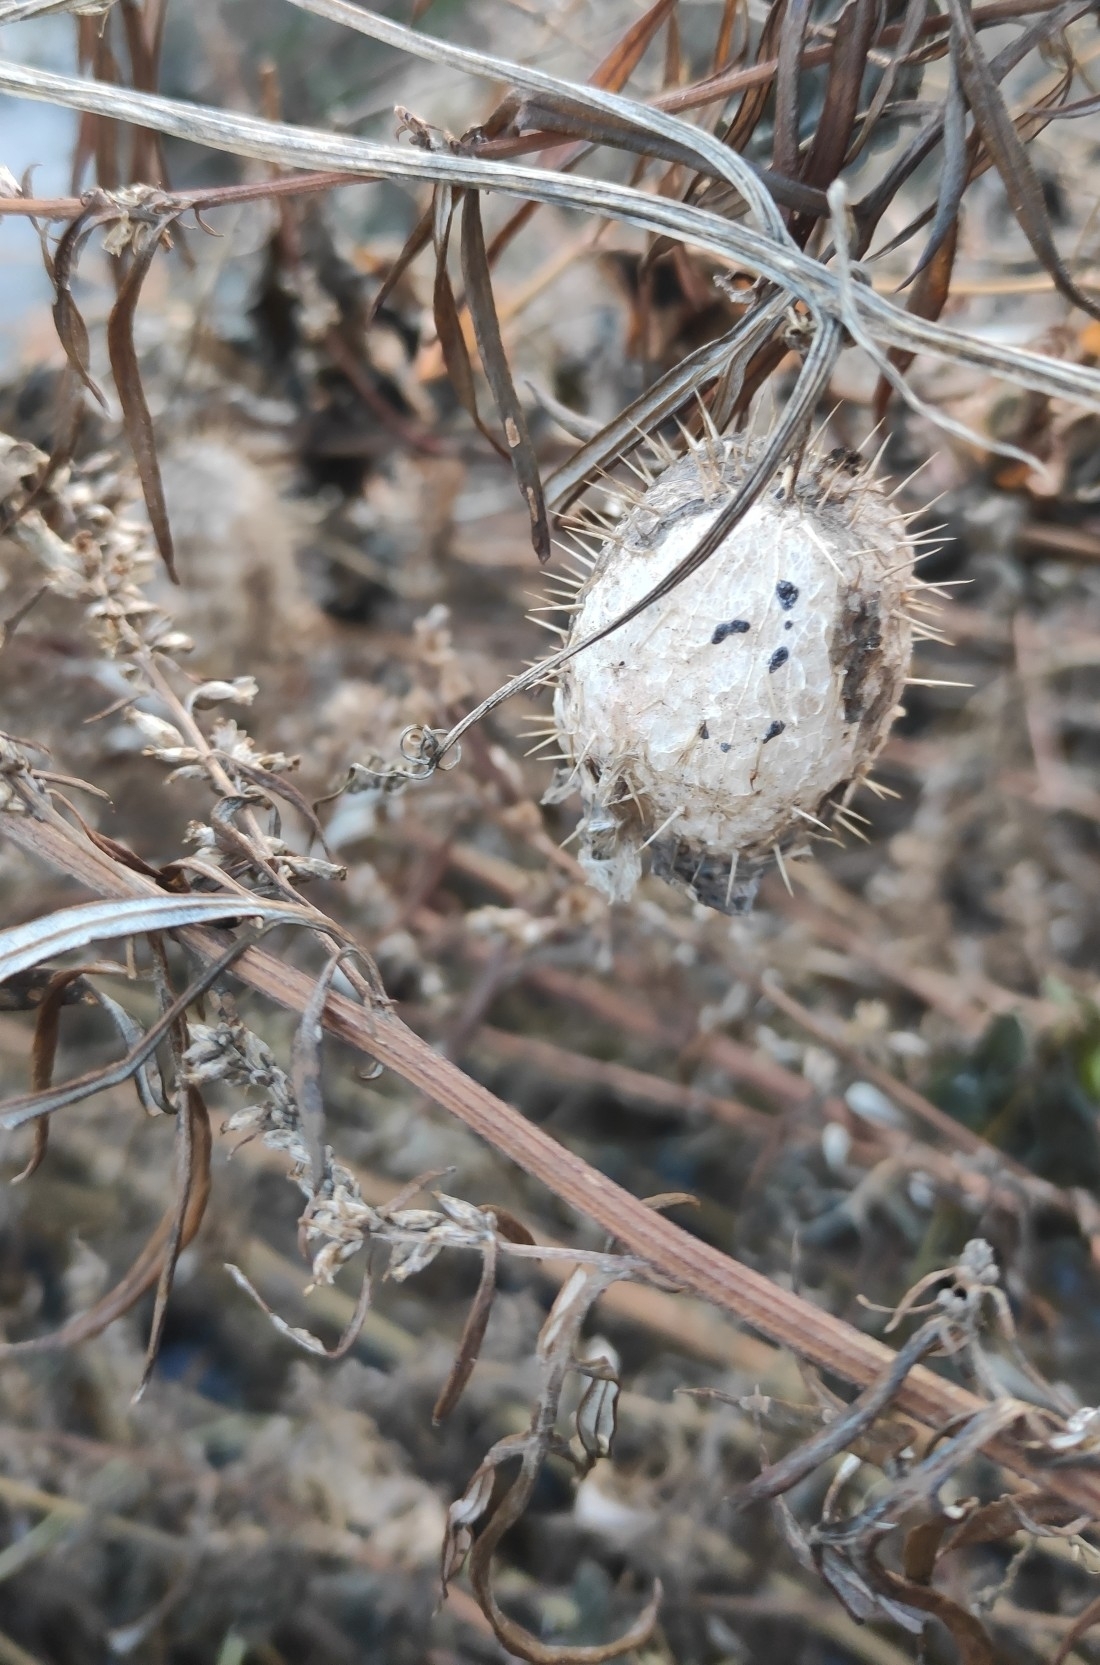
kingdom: Plantae
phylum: Tracheophyta
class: Magnoliopsida
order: Cucurbitales
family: Cucurbitaceae
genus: Echinocystis
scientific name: Echinocystis lobata
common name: Wild cucumber
